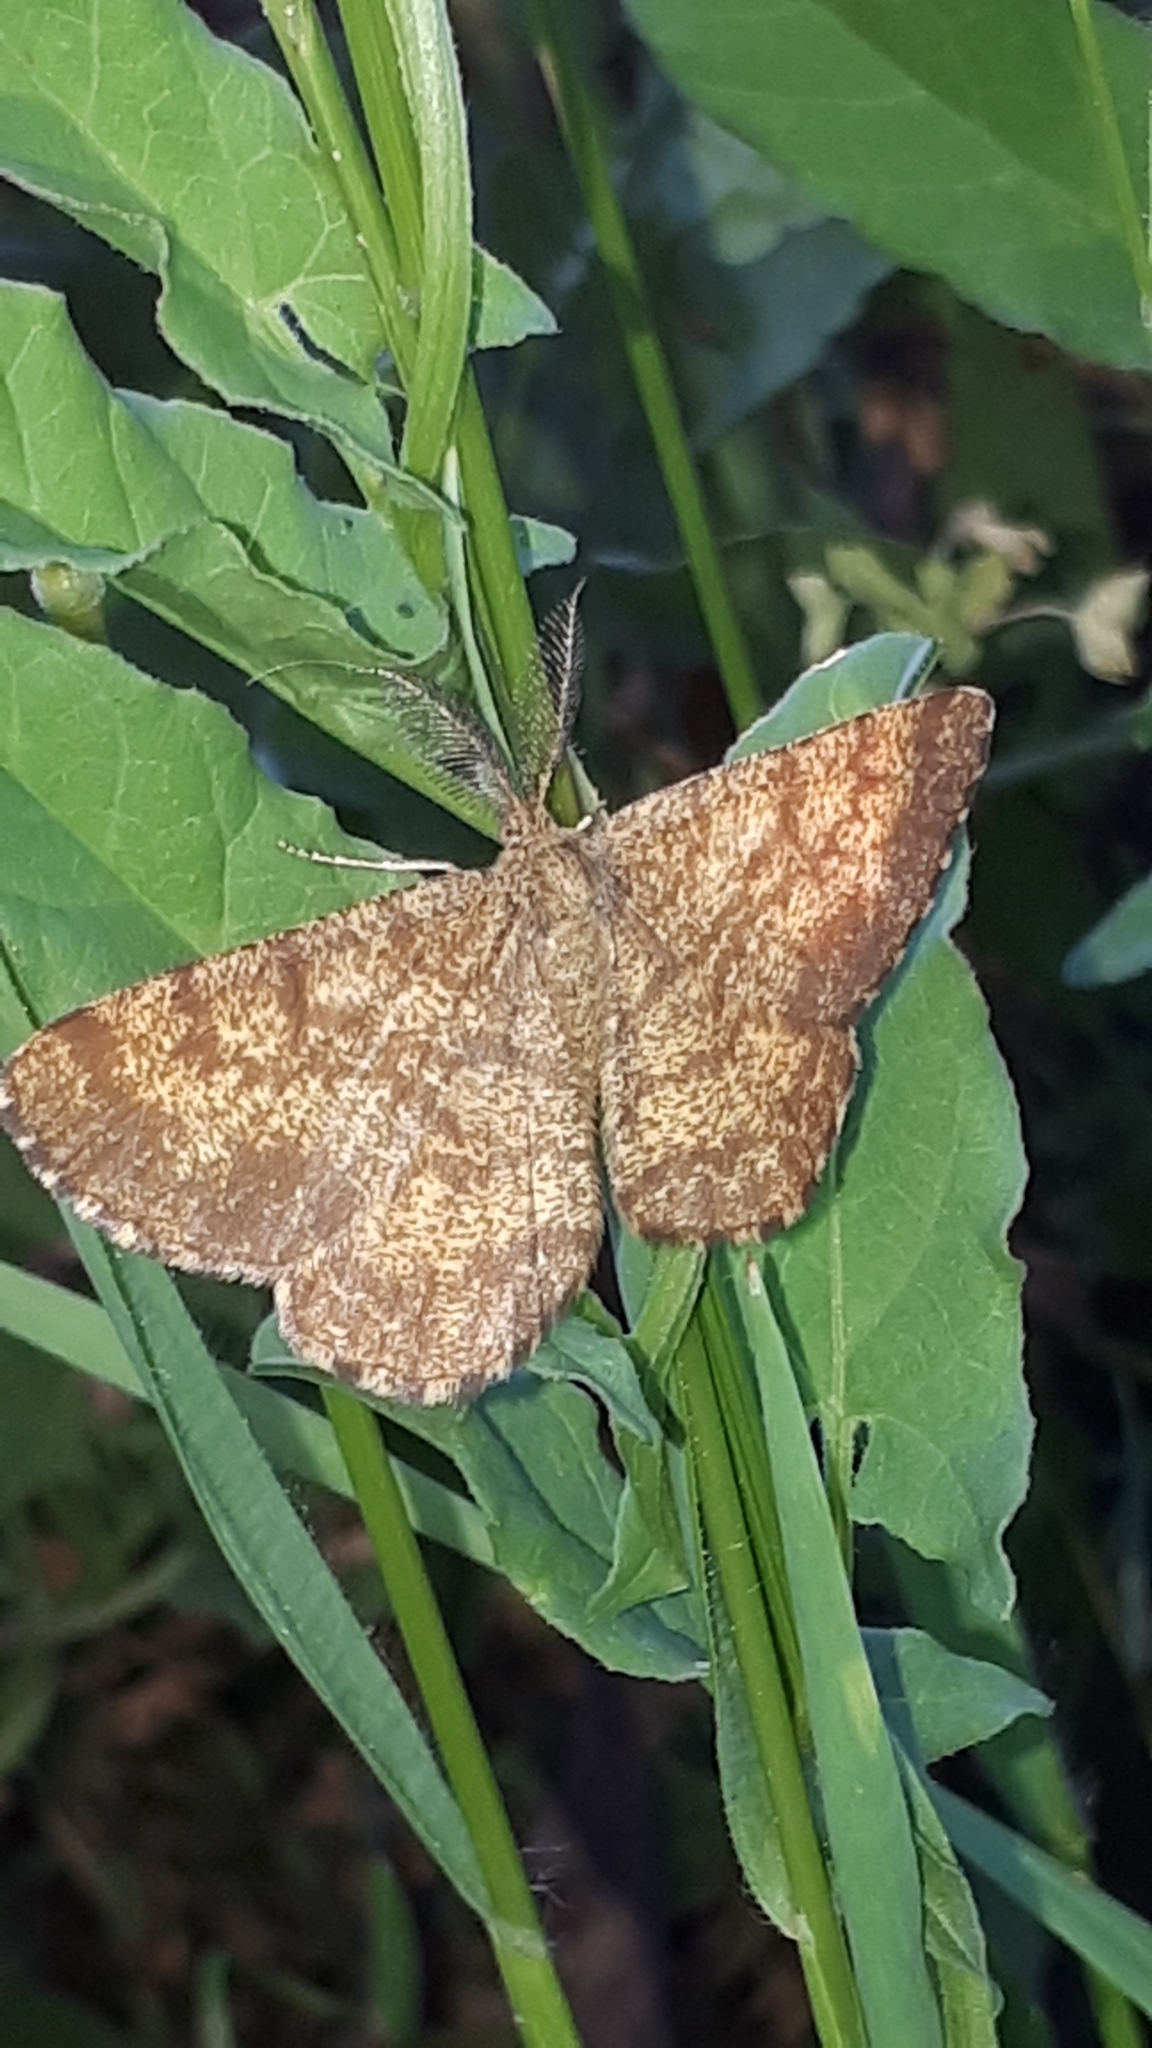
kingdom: Animalia
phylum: Arthropoda
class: Insecta
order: Lepidoptera
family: Geometridae
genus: Ematurga
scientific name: Ematurga atomaria
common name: Common heath
